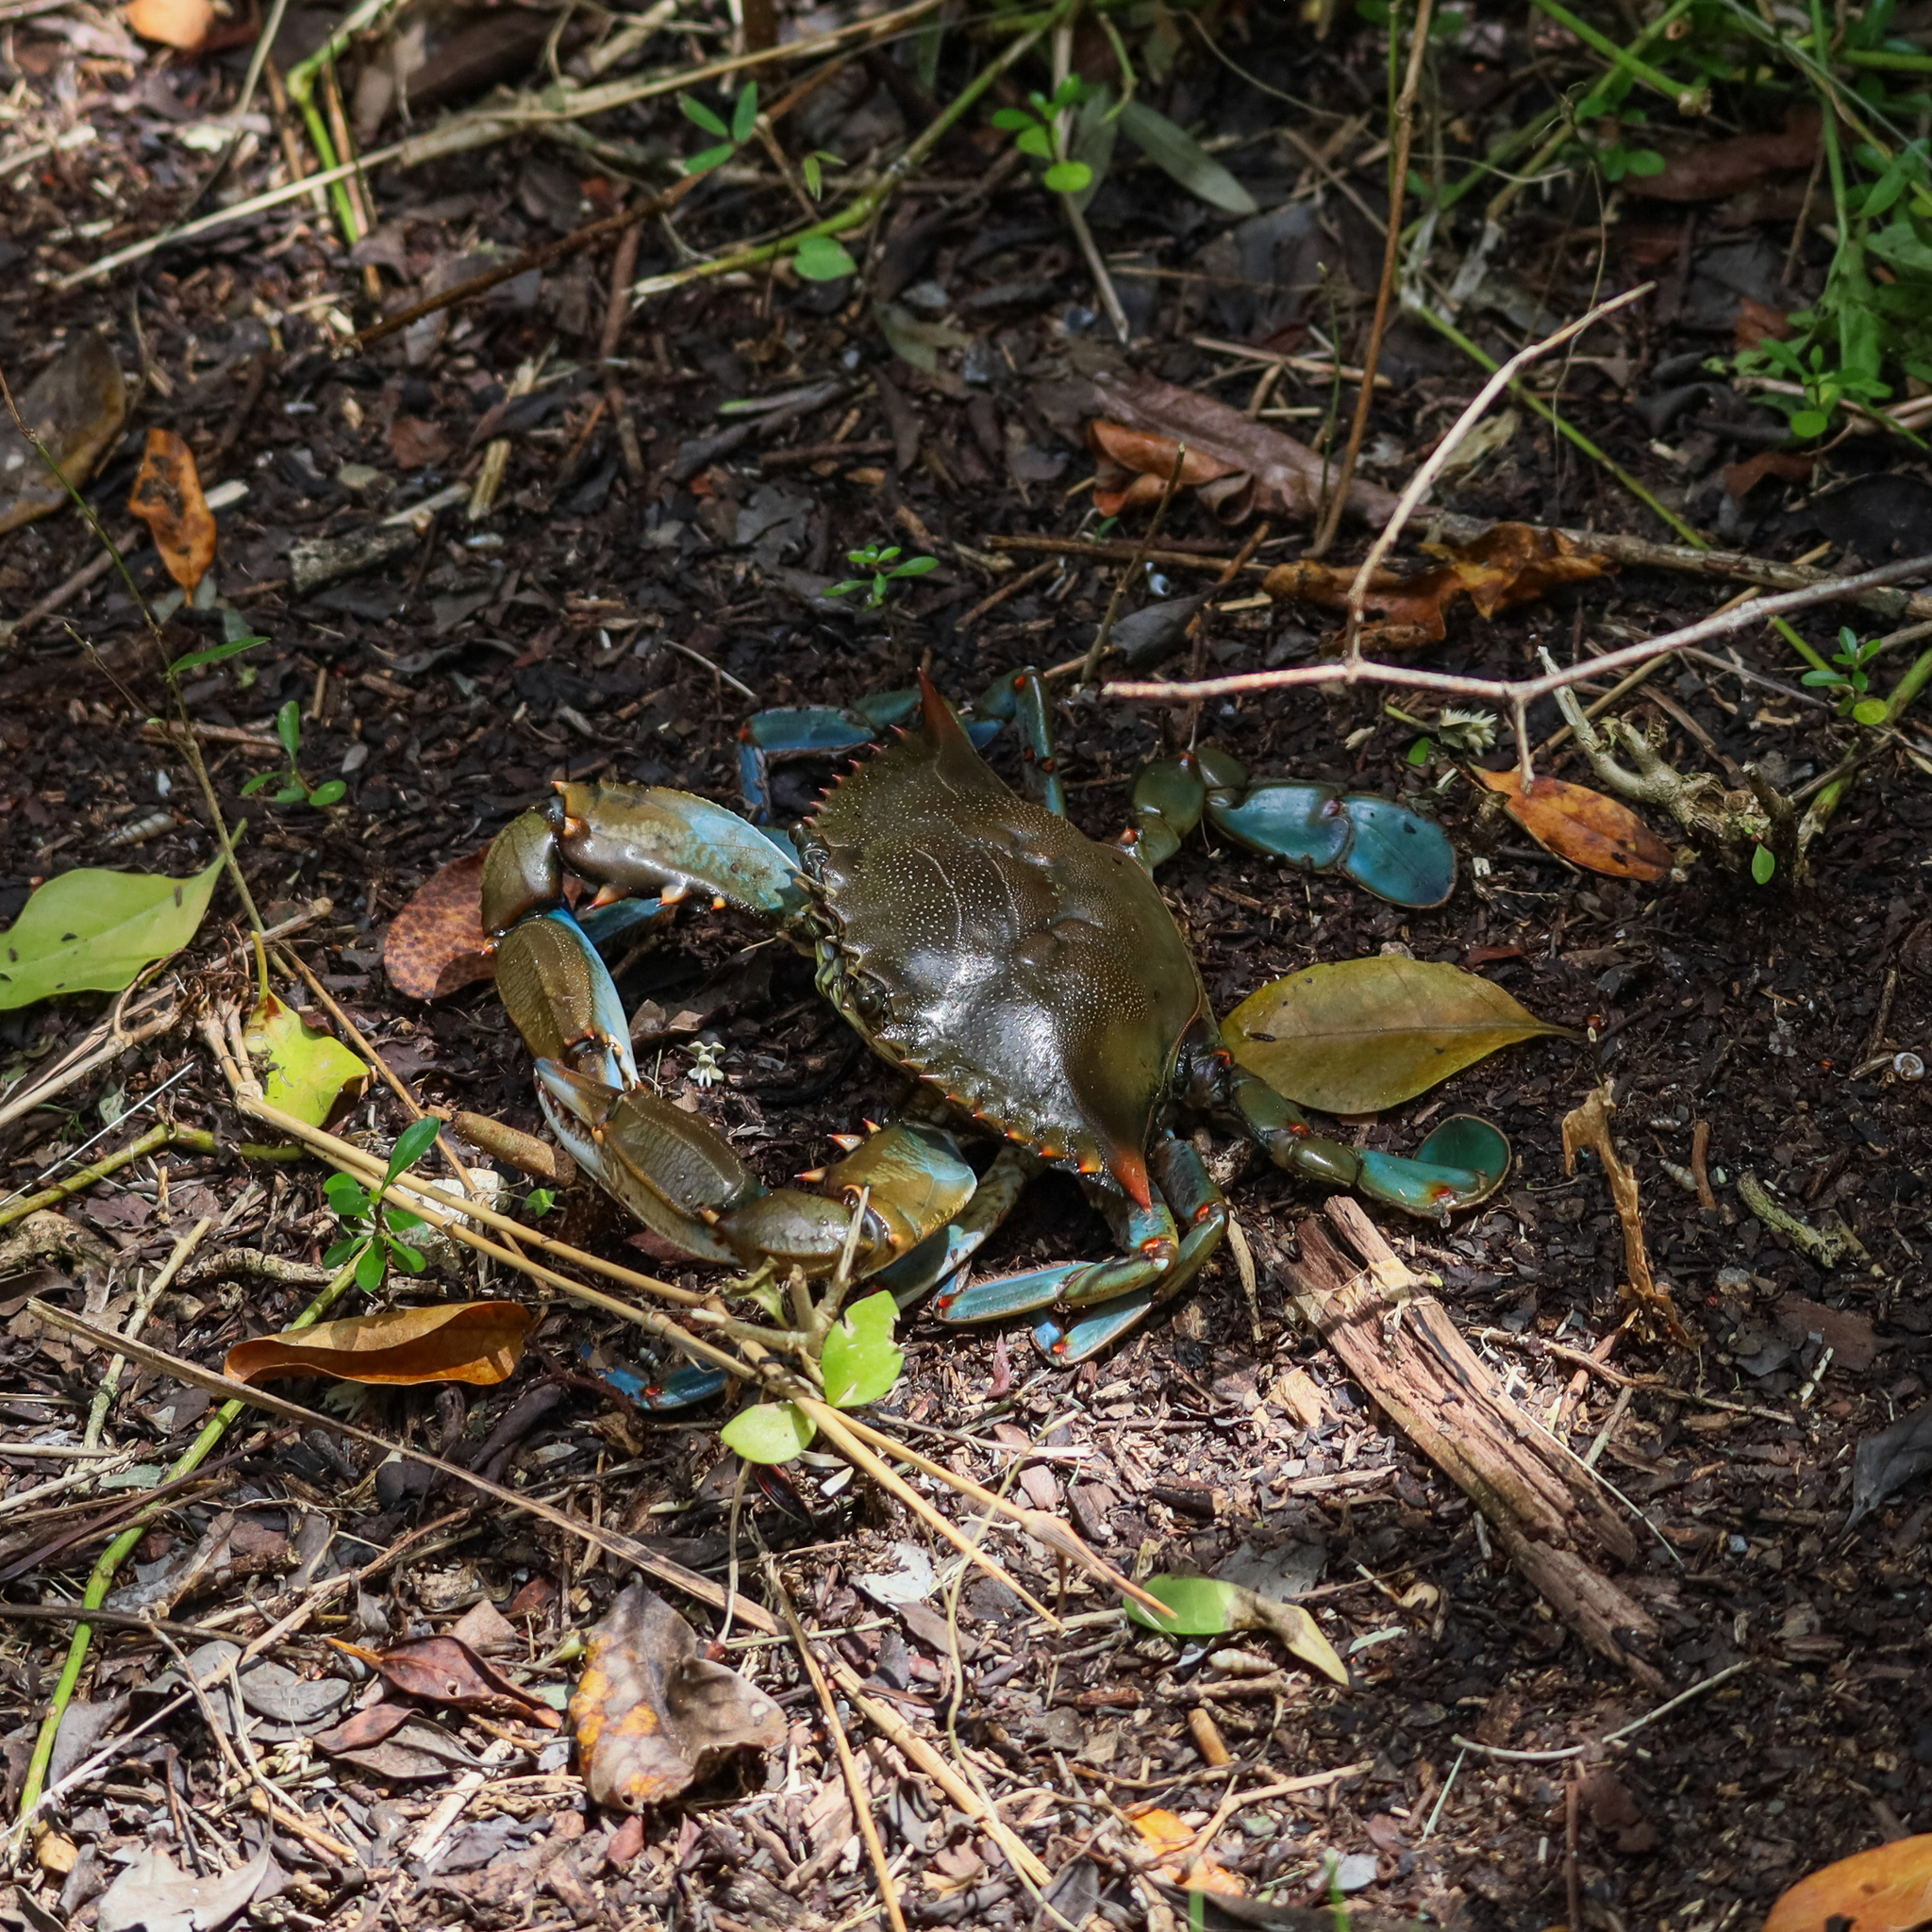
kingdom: Animalia
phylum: Arthropoda
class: Malacostraca
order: Decapoda
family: Portunidae
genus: Callinectes
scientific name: Callinectes sapidus
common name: Blue crab
